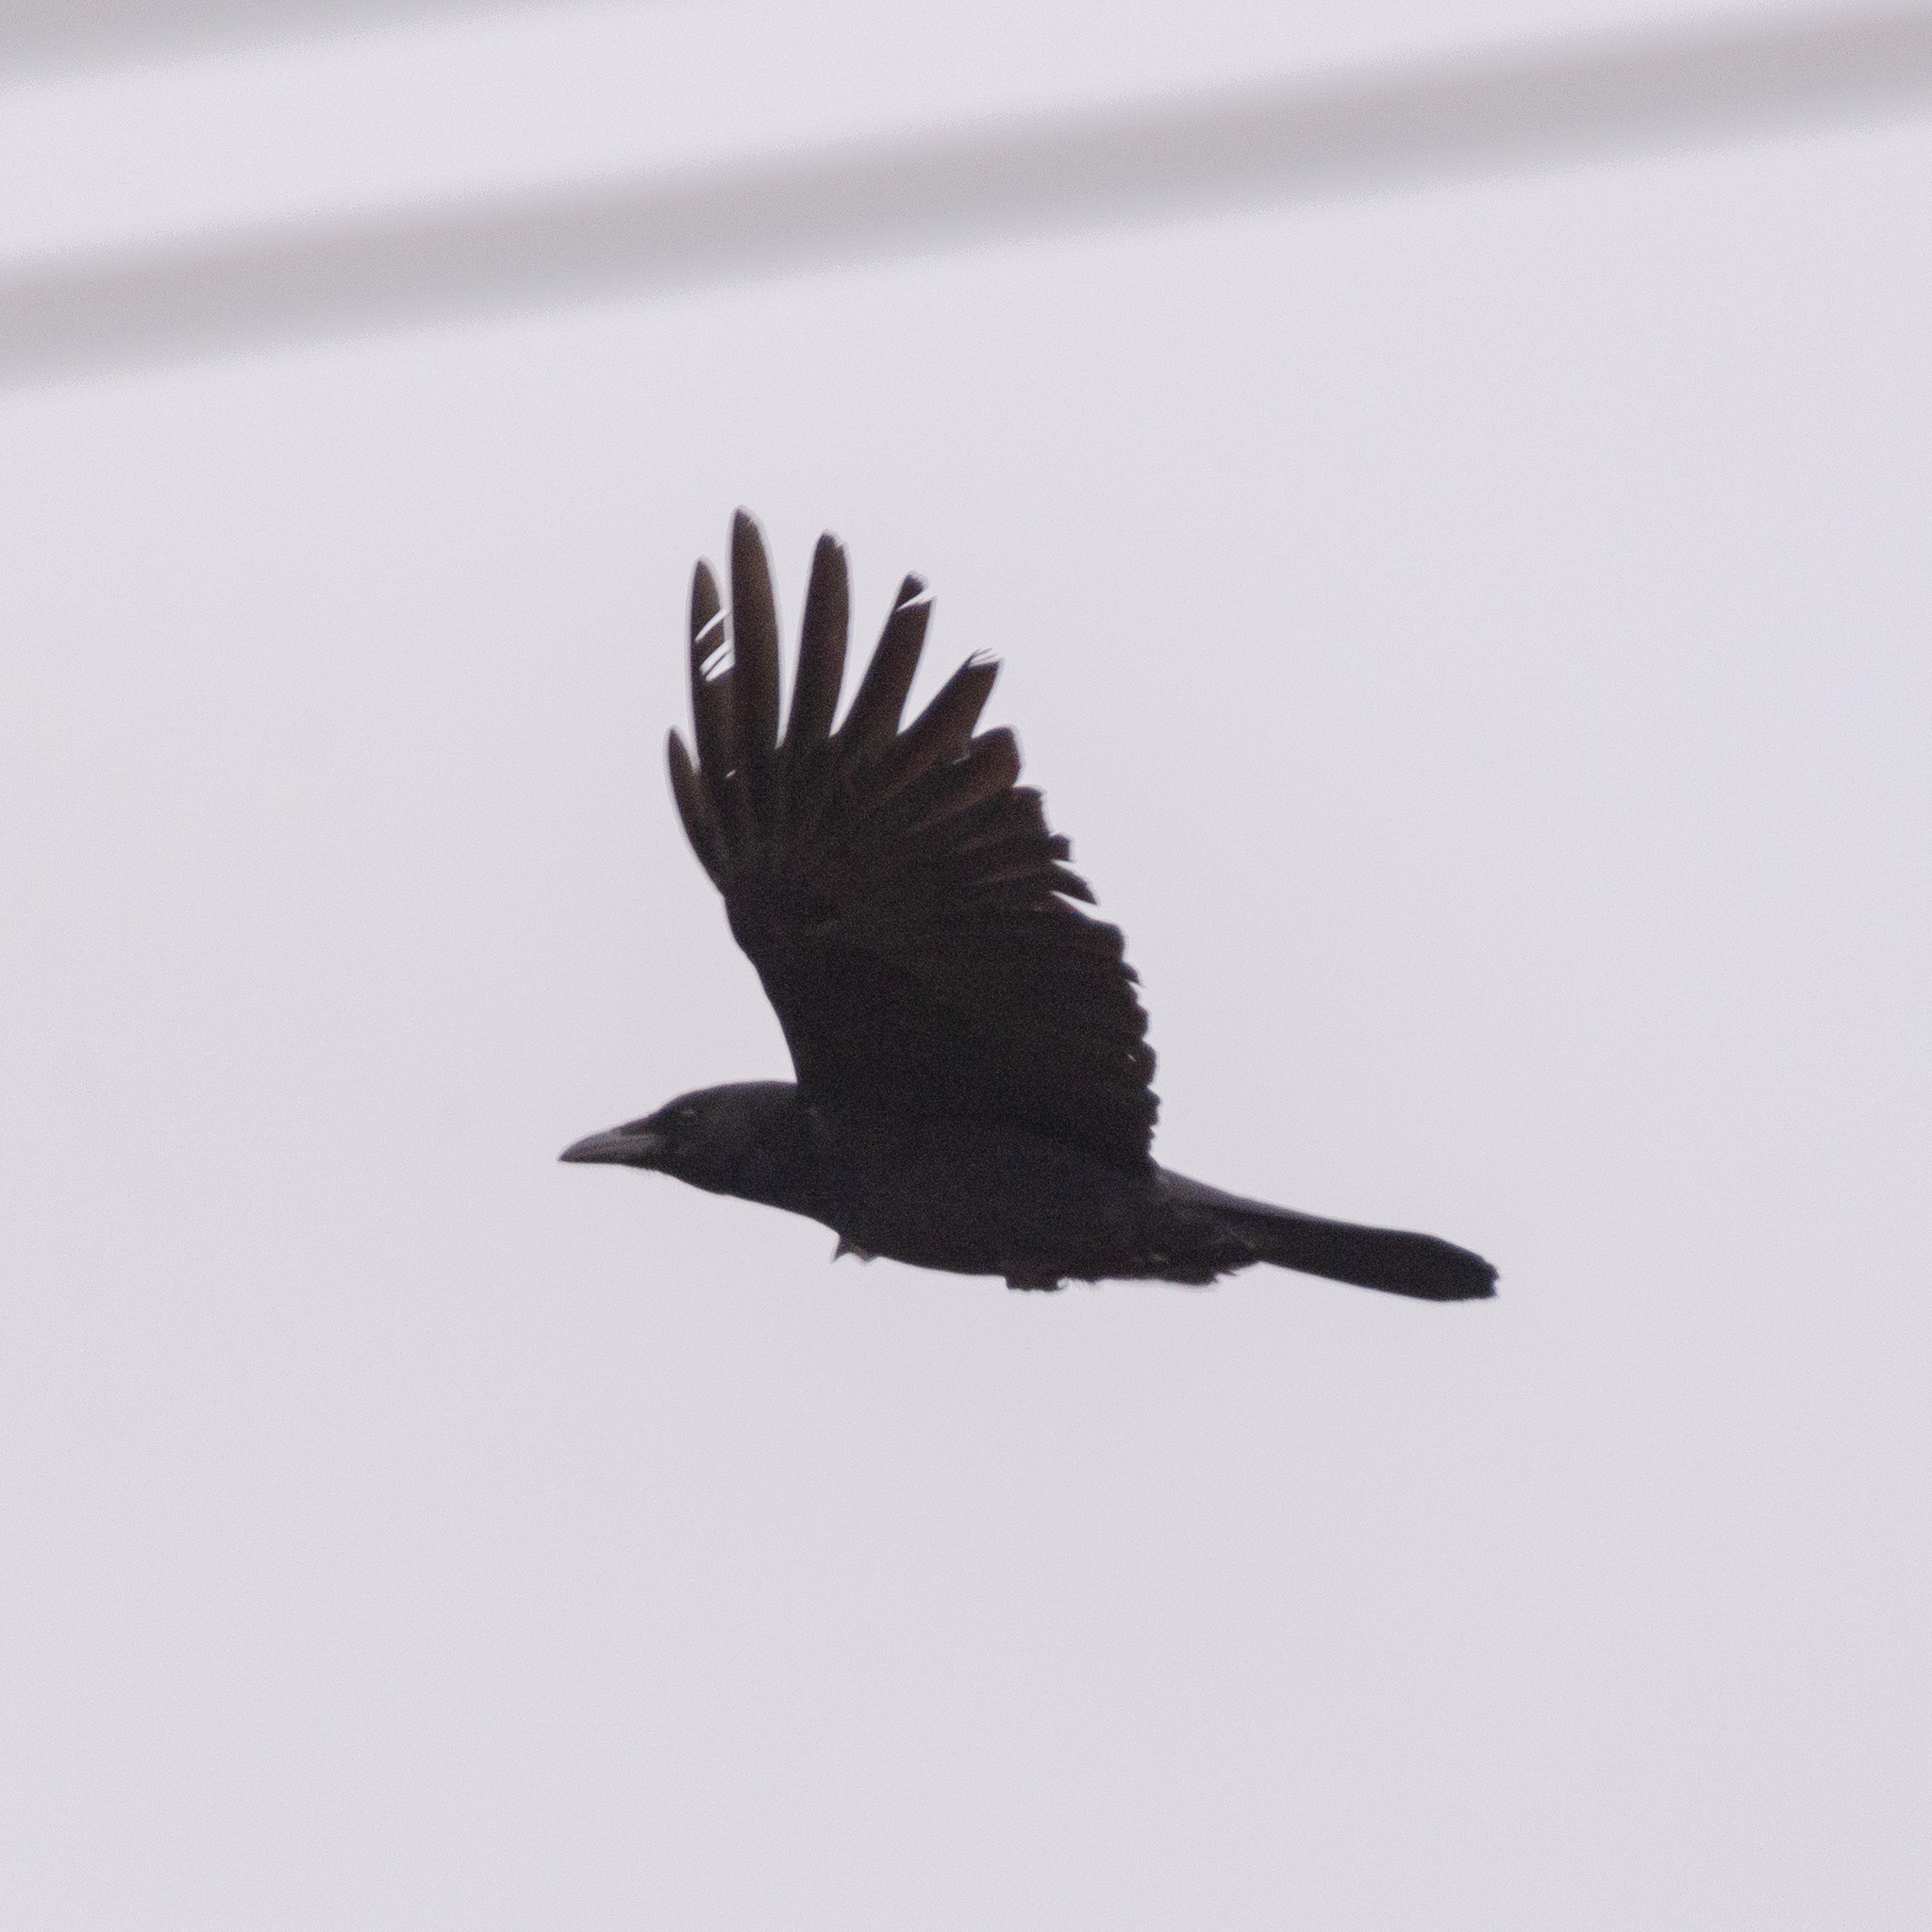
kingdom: Animalia
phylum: Chordata
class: Aves
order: Passeriformes
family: Corvidae
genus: Corvus
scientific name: Corvus corone
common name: Carrion crow
